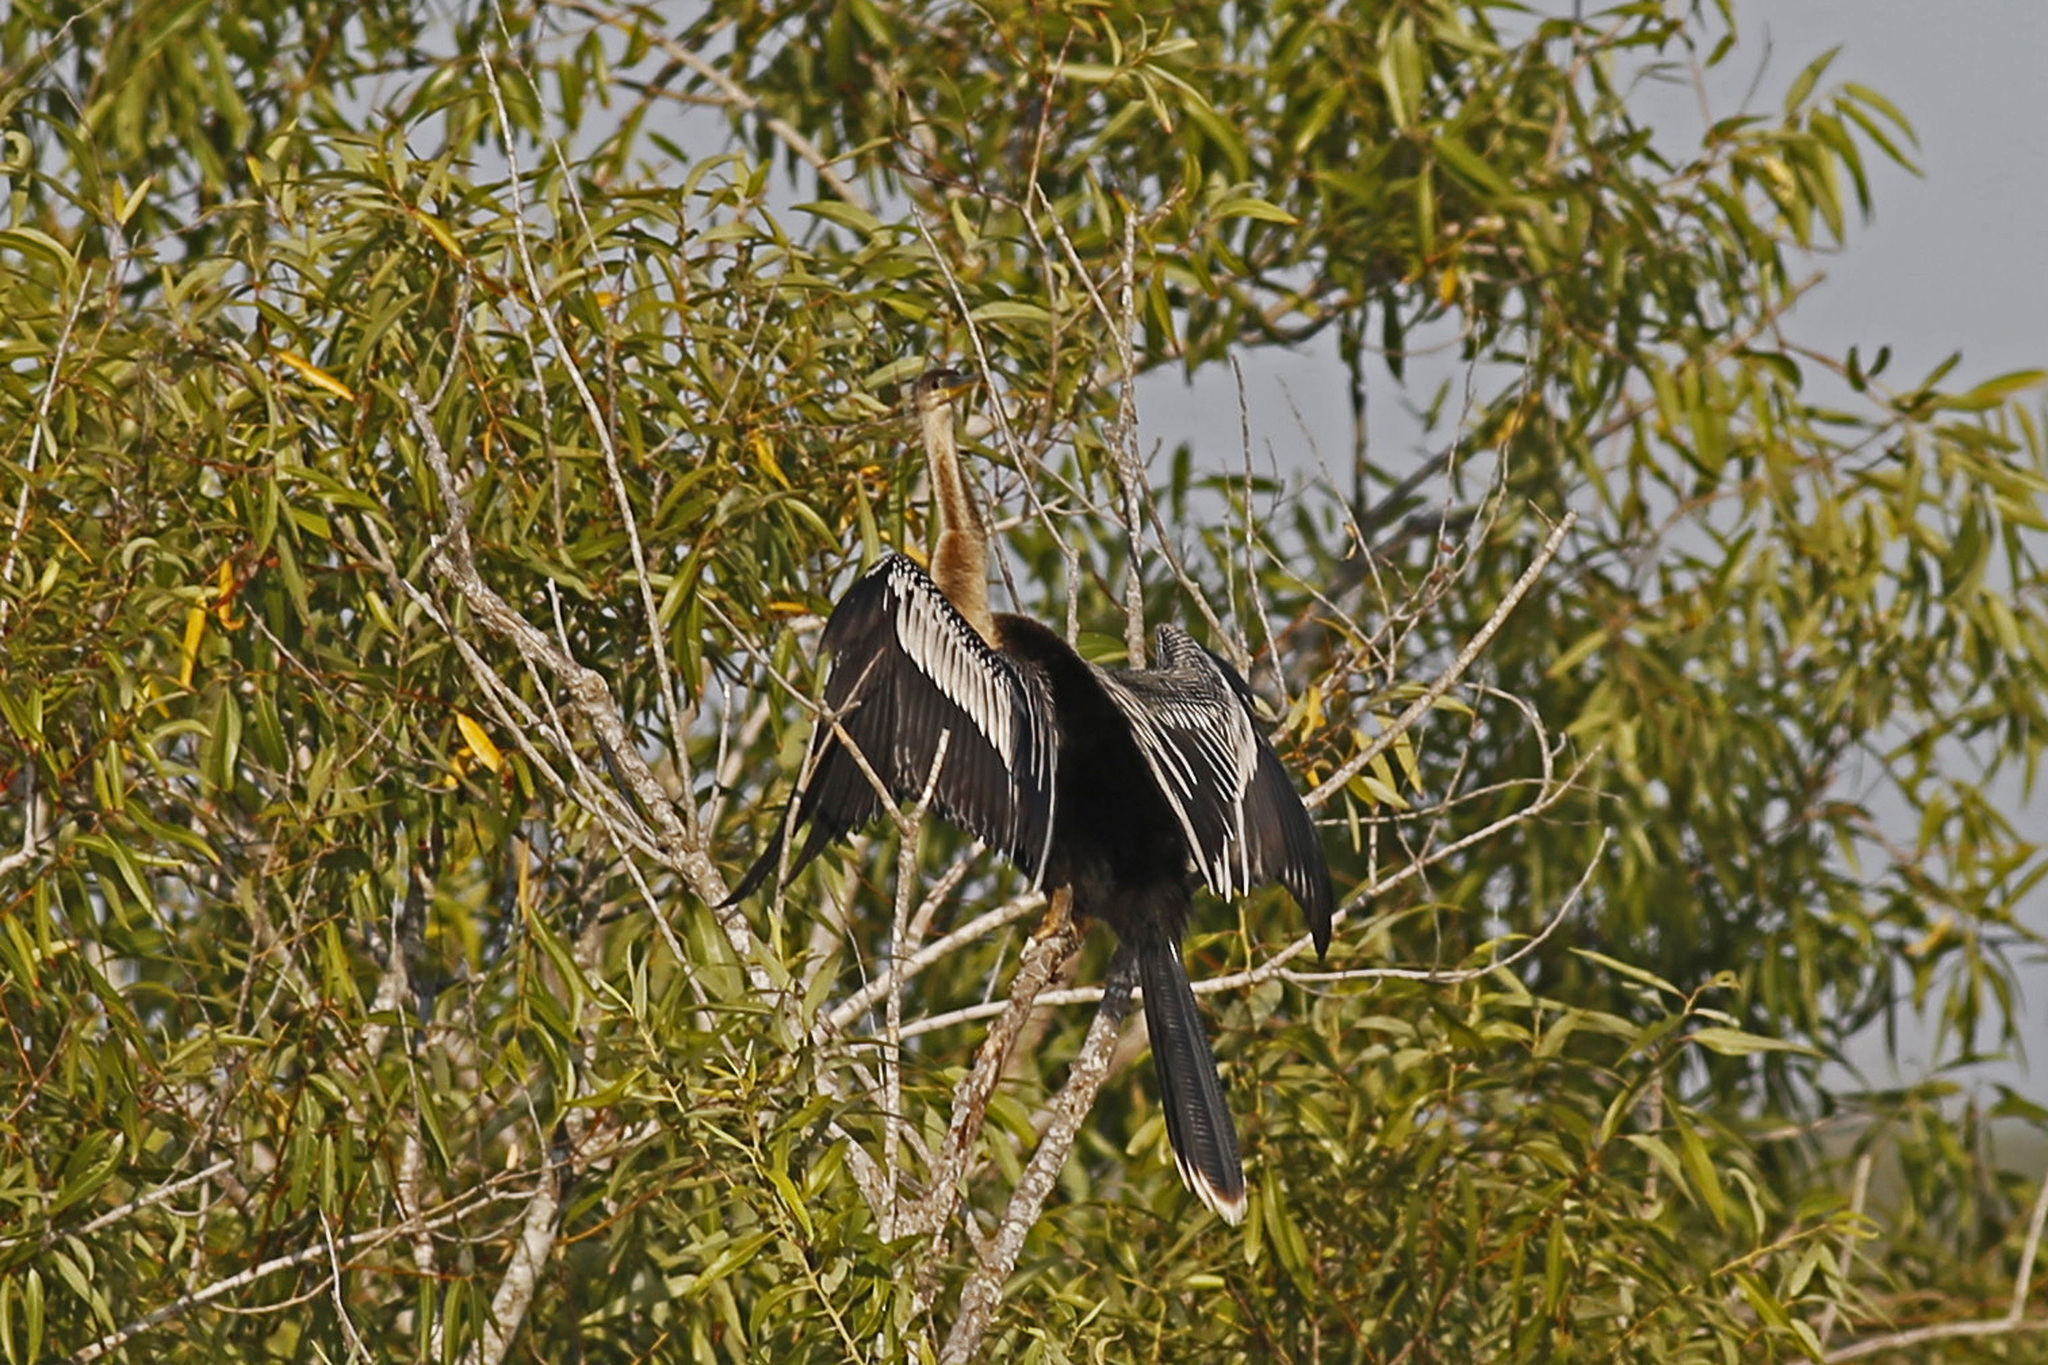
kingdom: Animalia
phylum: Chordata
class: Aves
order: Suliformes
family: Anhingidae
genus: Anhinga
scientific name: Anhinga anhinga
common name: Anhinga
